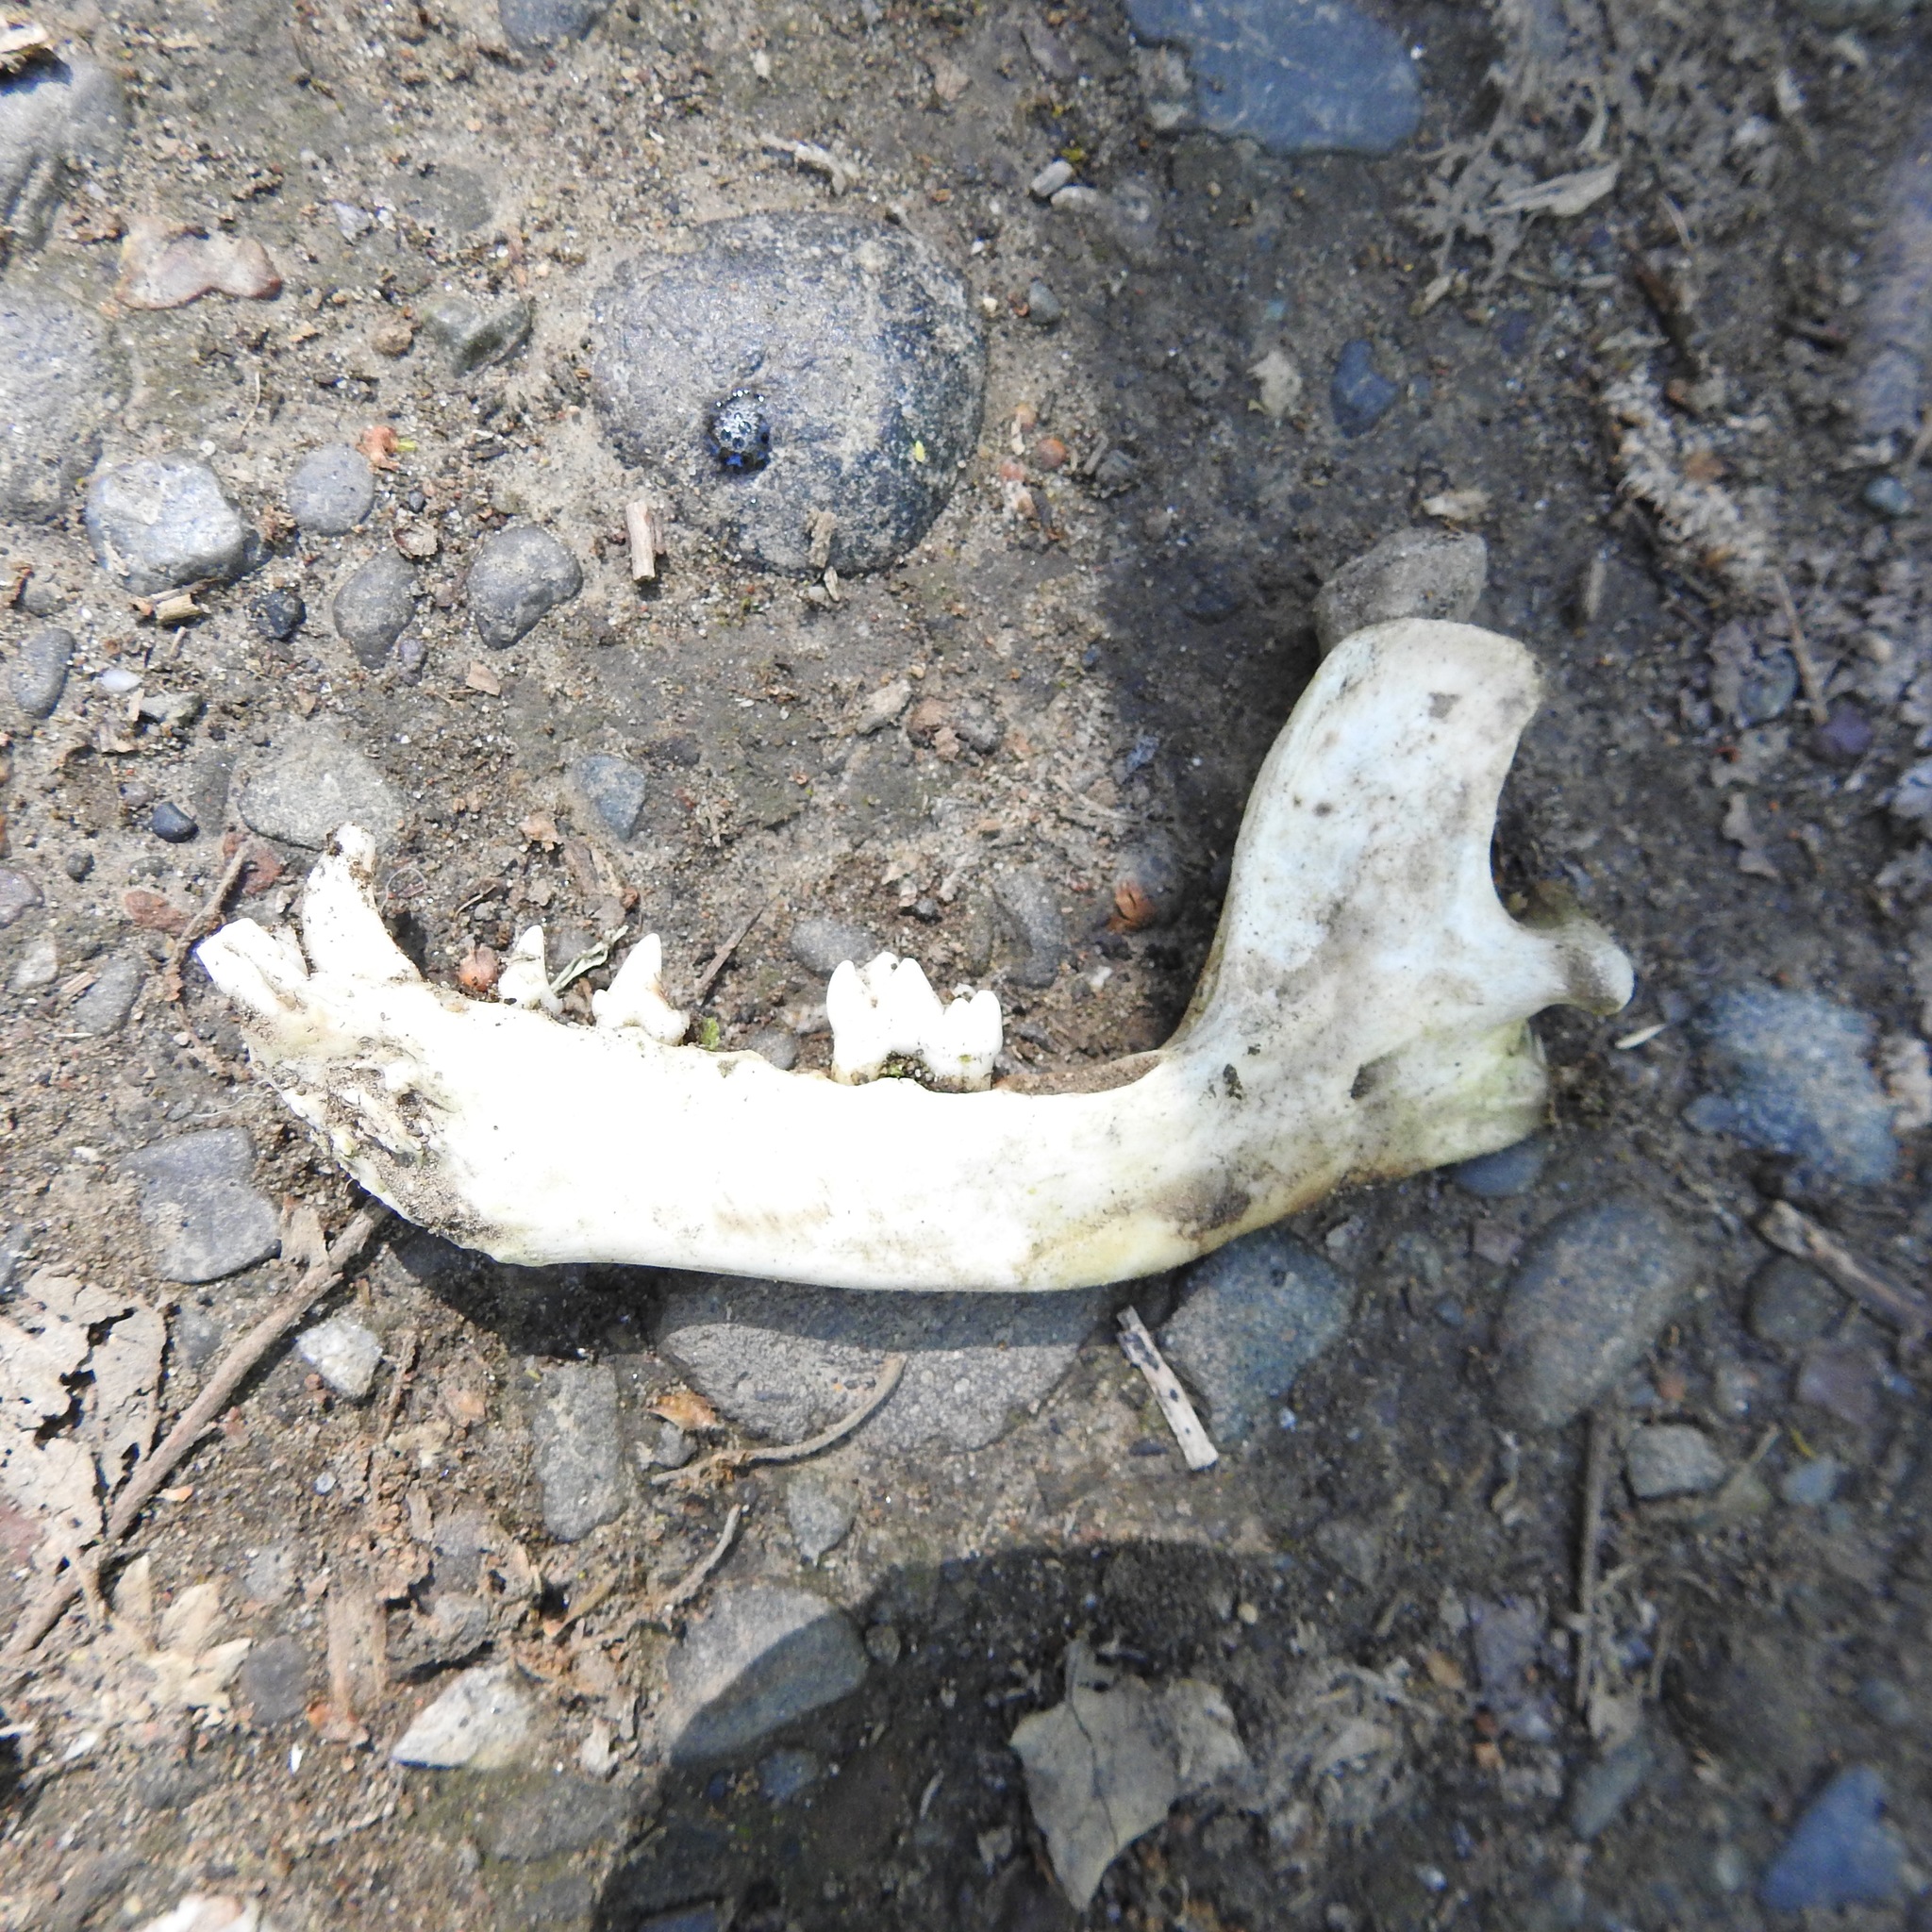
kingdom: Animalia
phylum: Chordata
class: Mammalia
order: Carnivora
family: Procyonidae
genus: Procyon
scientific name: Procyon lotor
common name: Raccoon
